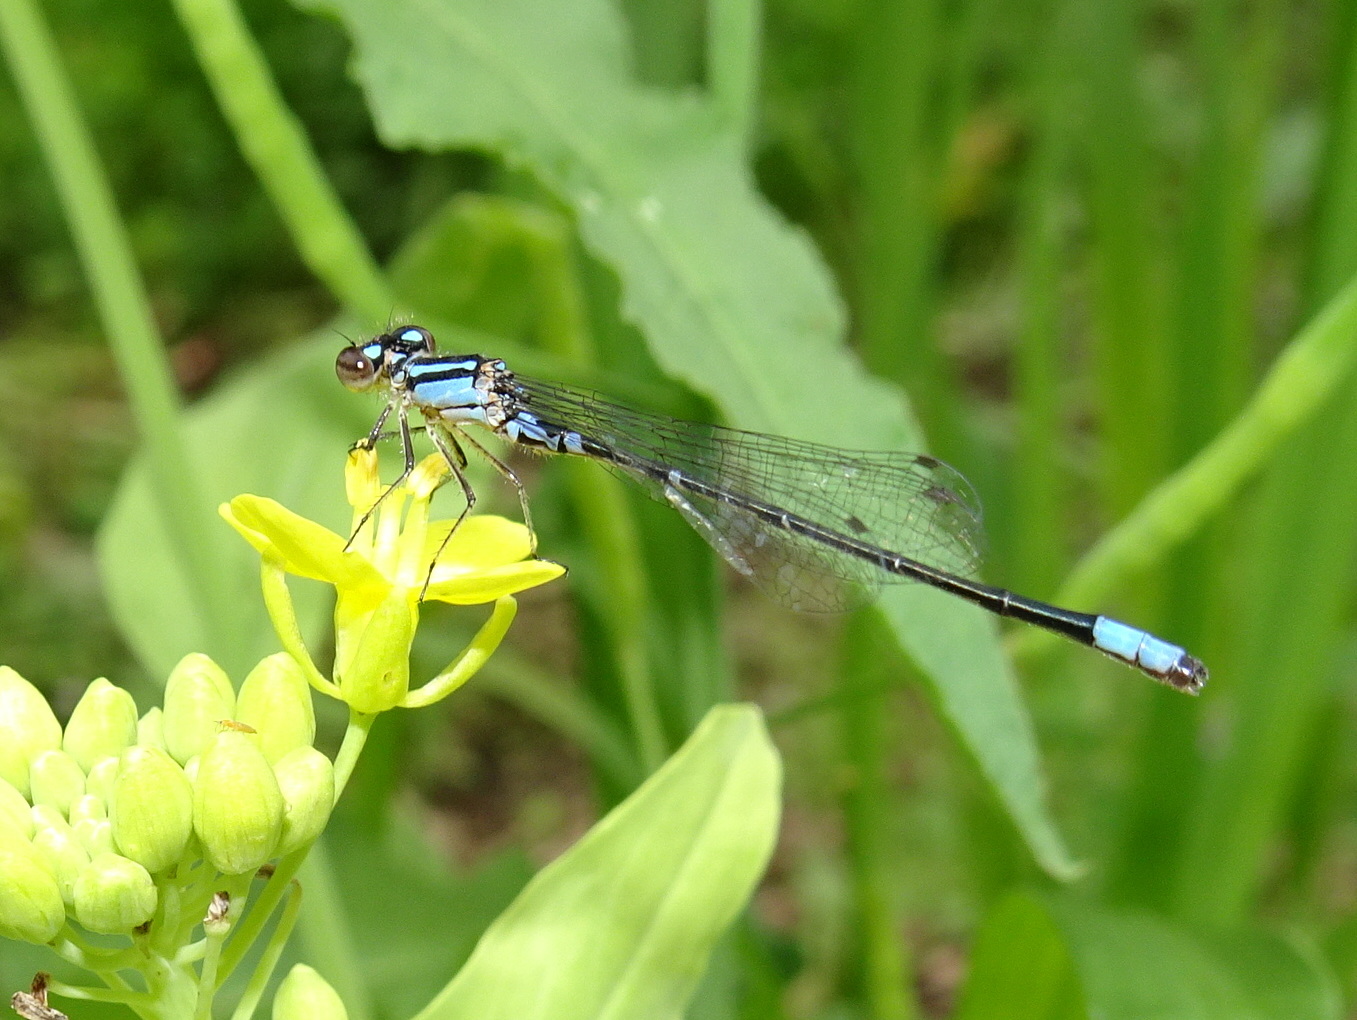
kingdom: Animalia
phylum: Arthropoda
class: Insecta
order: Odonata
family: Coenagrionidae
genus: Enallagma
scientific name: Enallagma geminatum
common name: Skimming bluet
